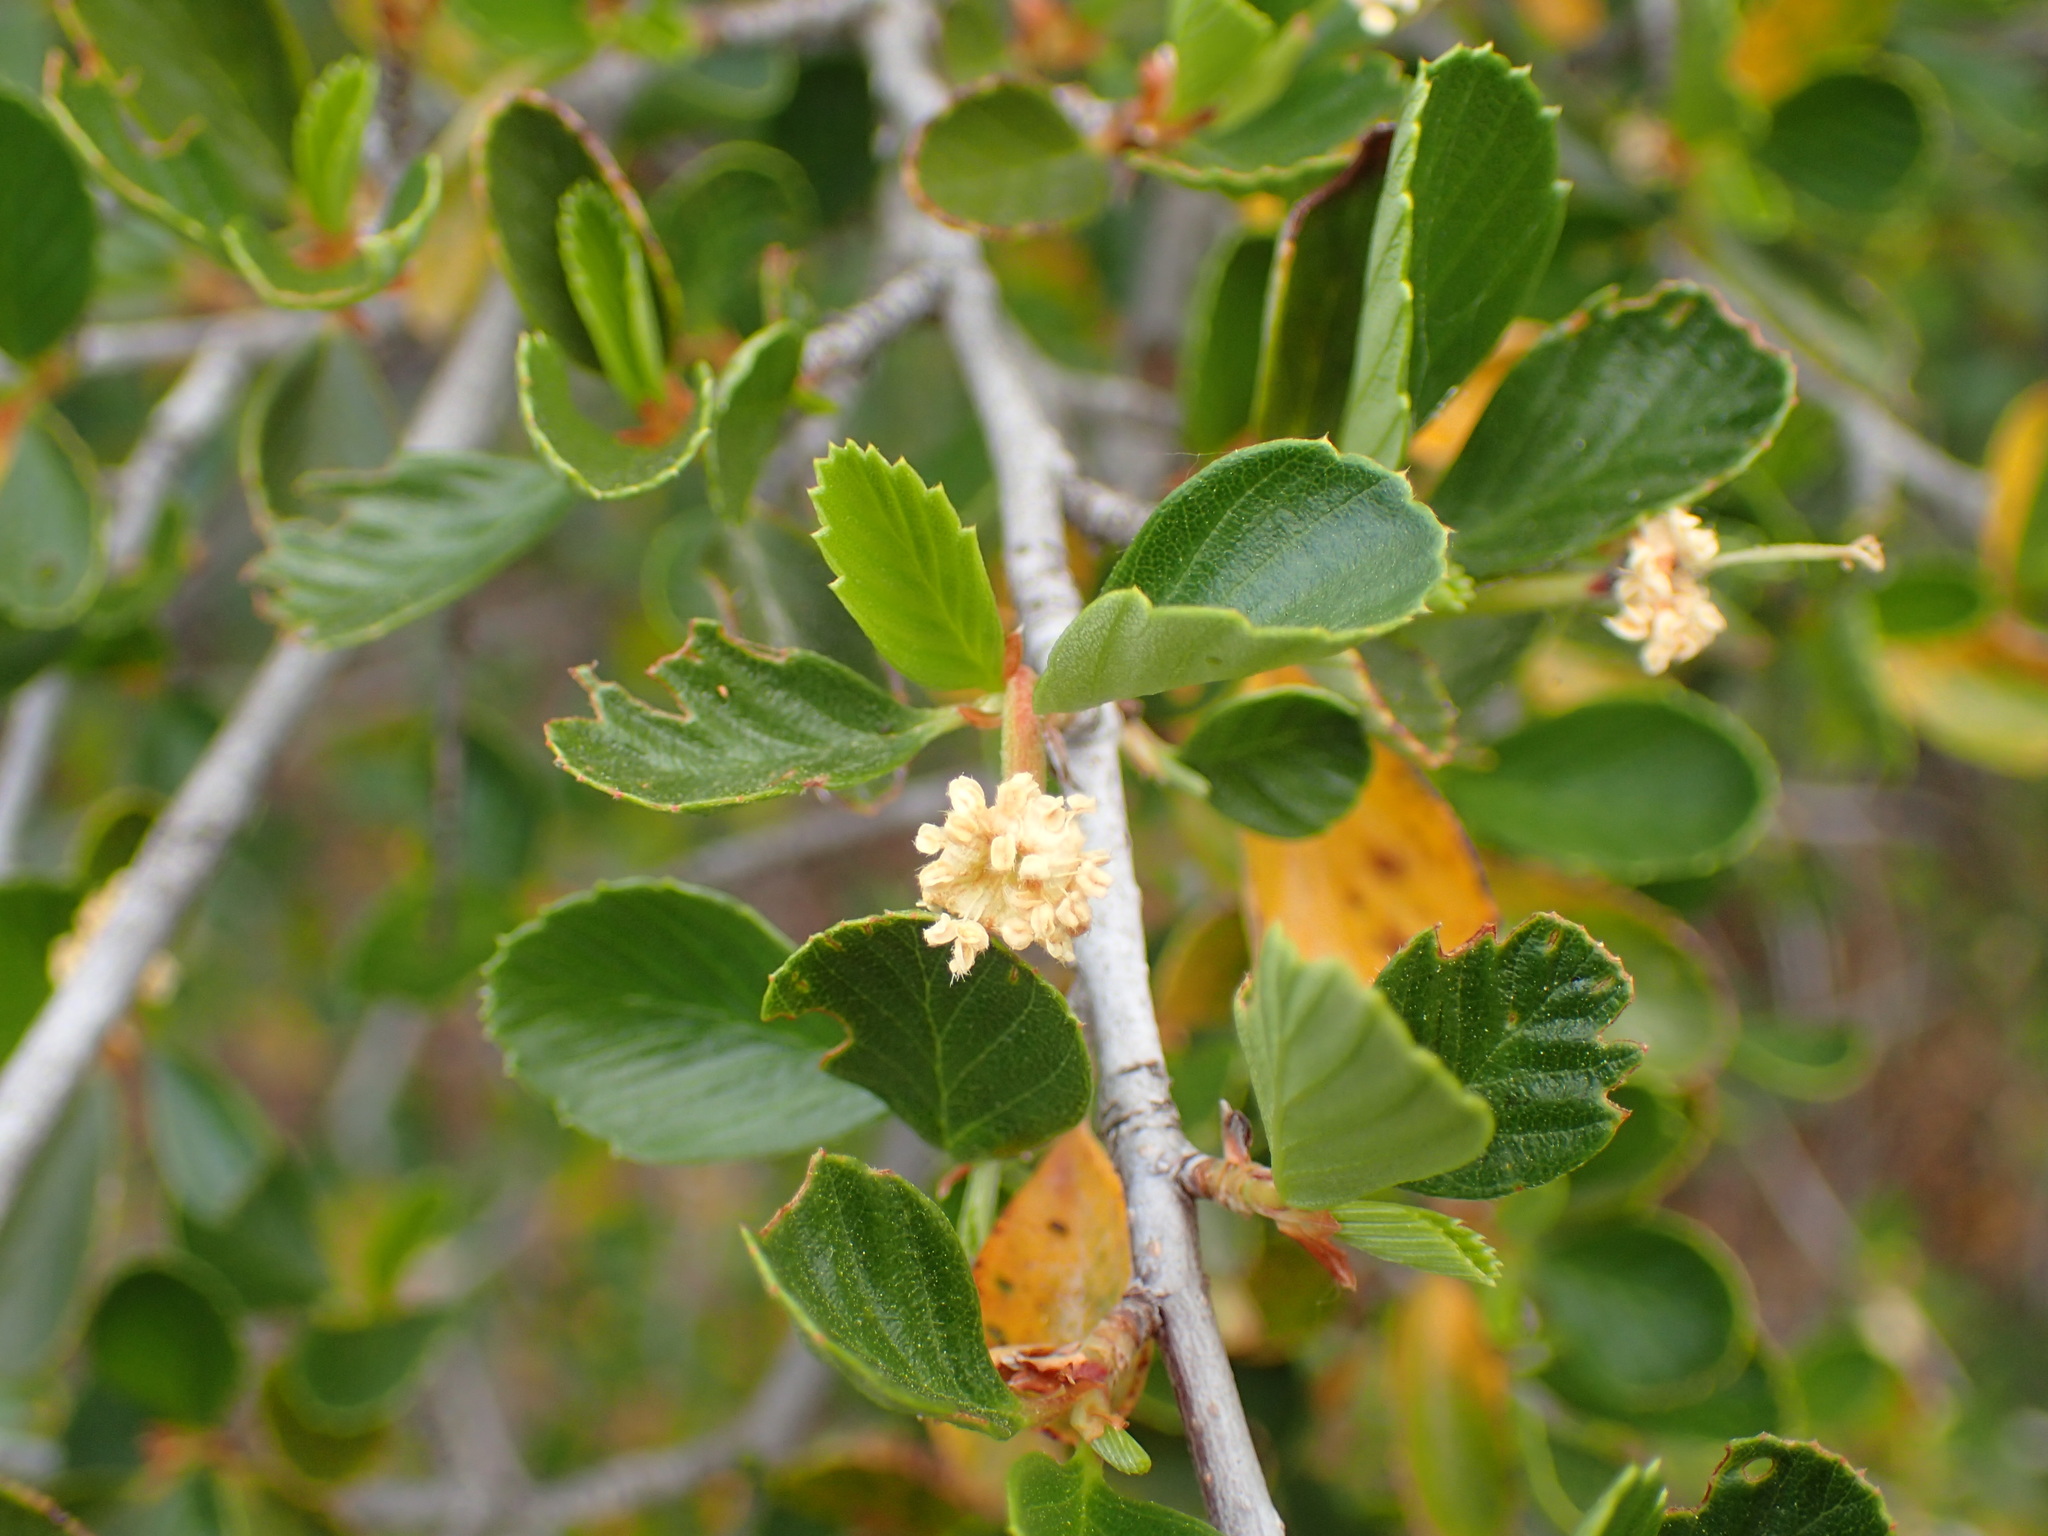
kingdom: Plantae
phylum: Tracheophyta
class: Magnoliopsida
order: Rosales
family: Rosaceae
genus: Cercocarpus
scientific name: Cercocarpus betuloides
